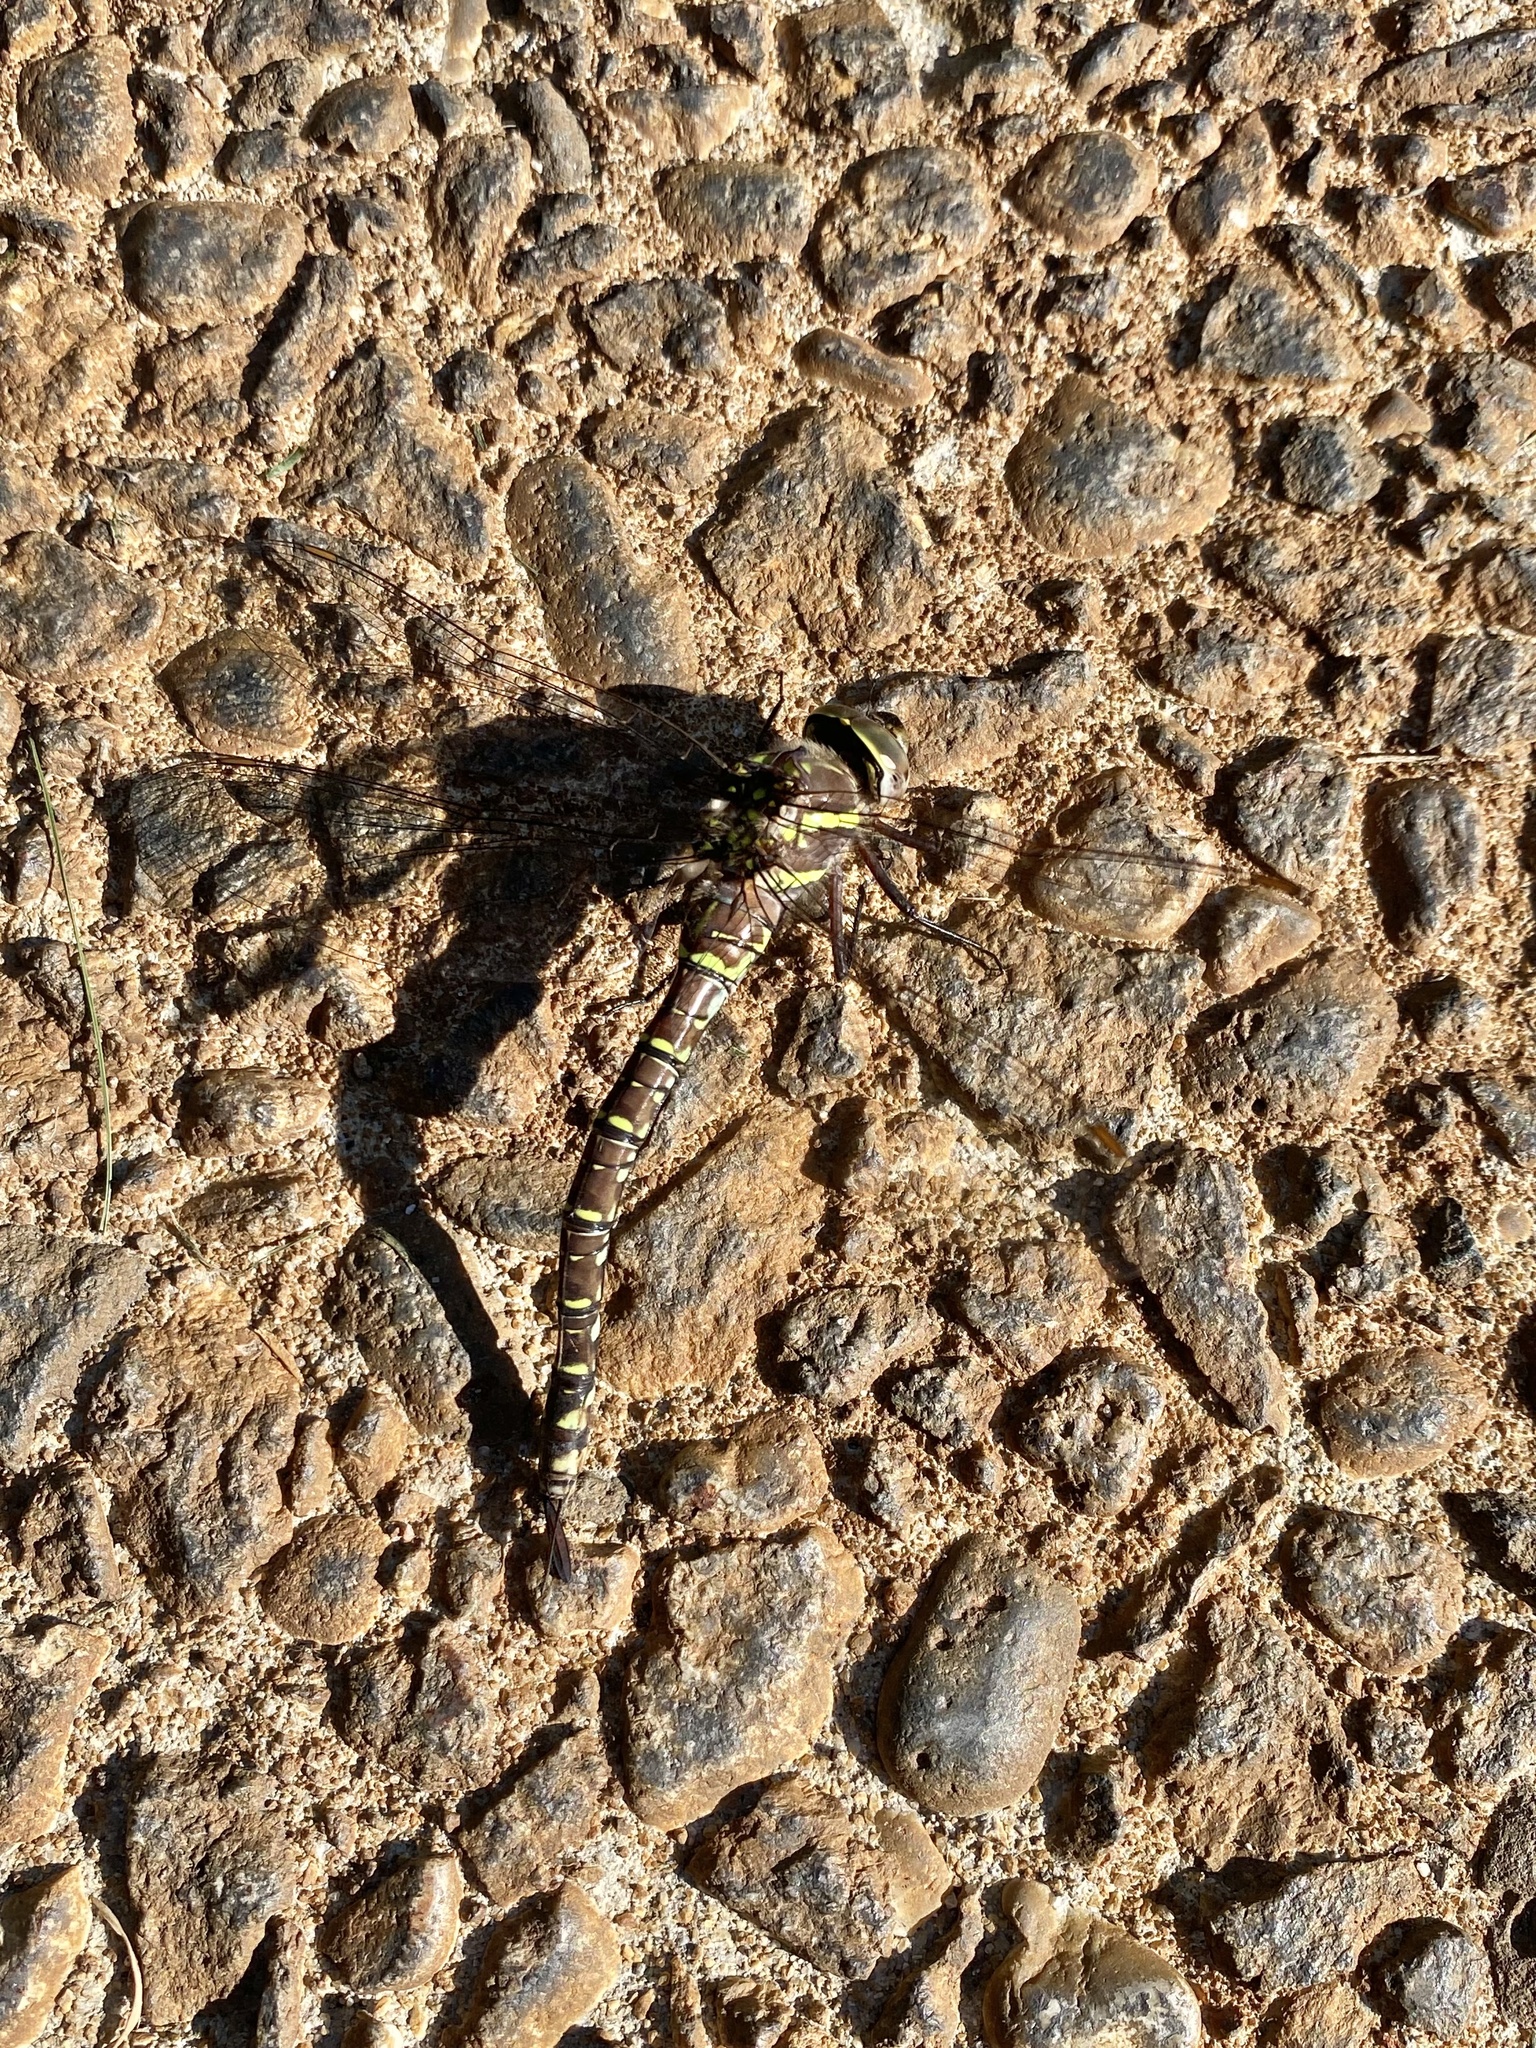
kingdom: Animalia
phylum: Arthropoda
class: Insecta
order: Odonata
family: Aeshnidae
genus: Aeshna
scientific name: Aeshna umbrosa
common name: Shadow darner
